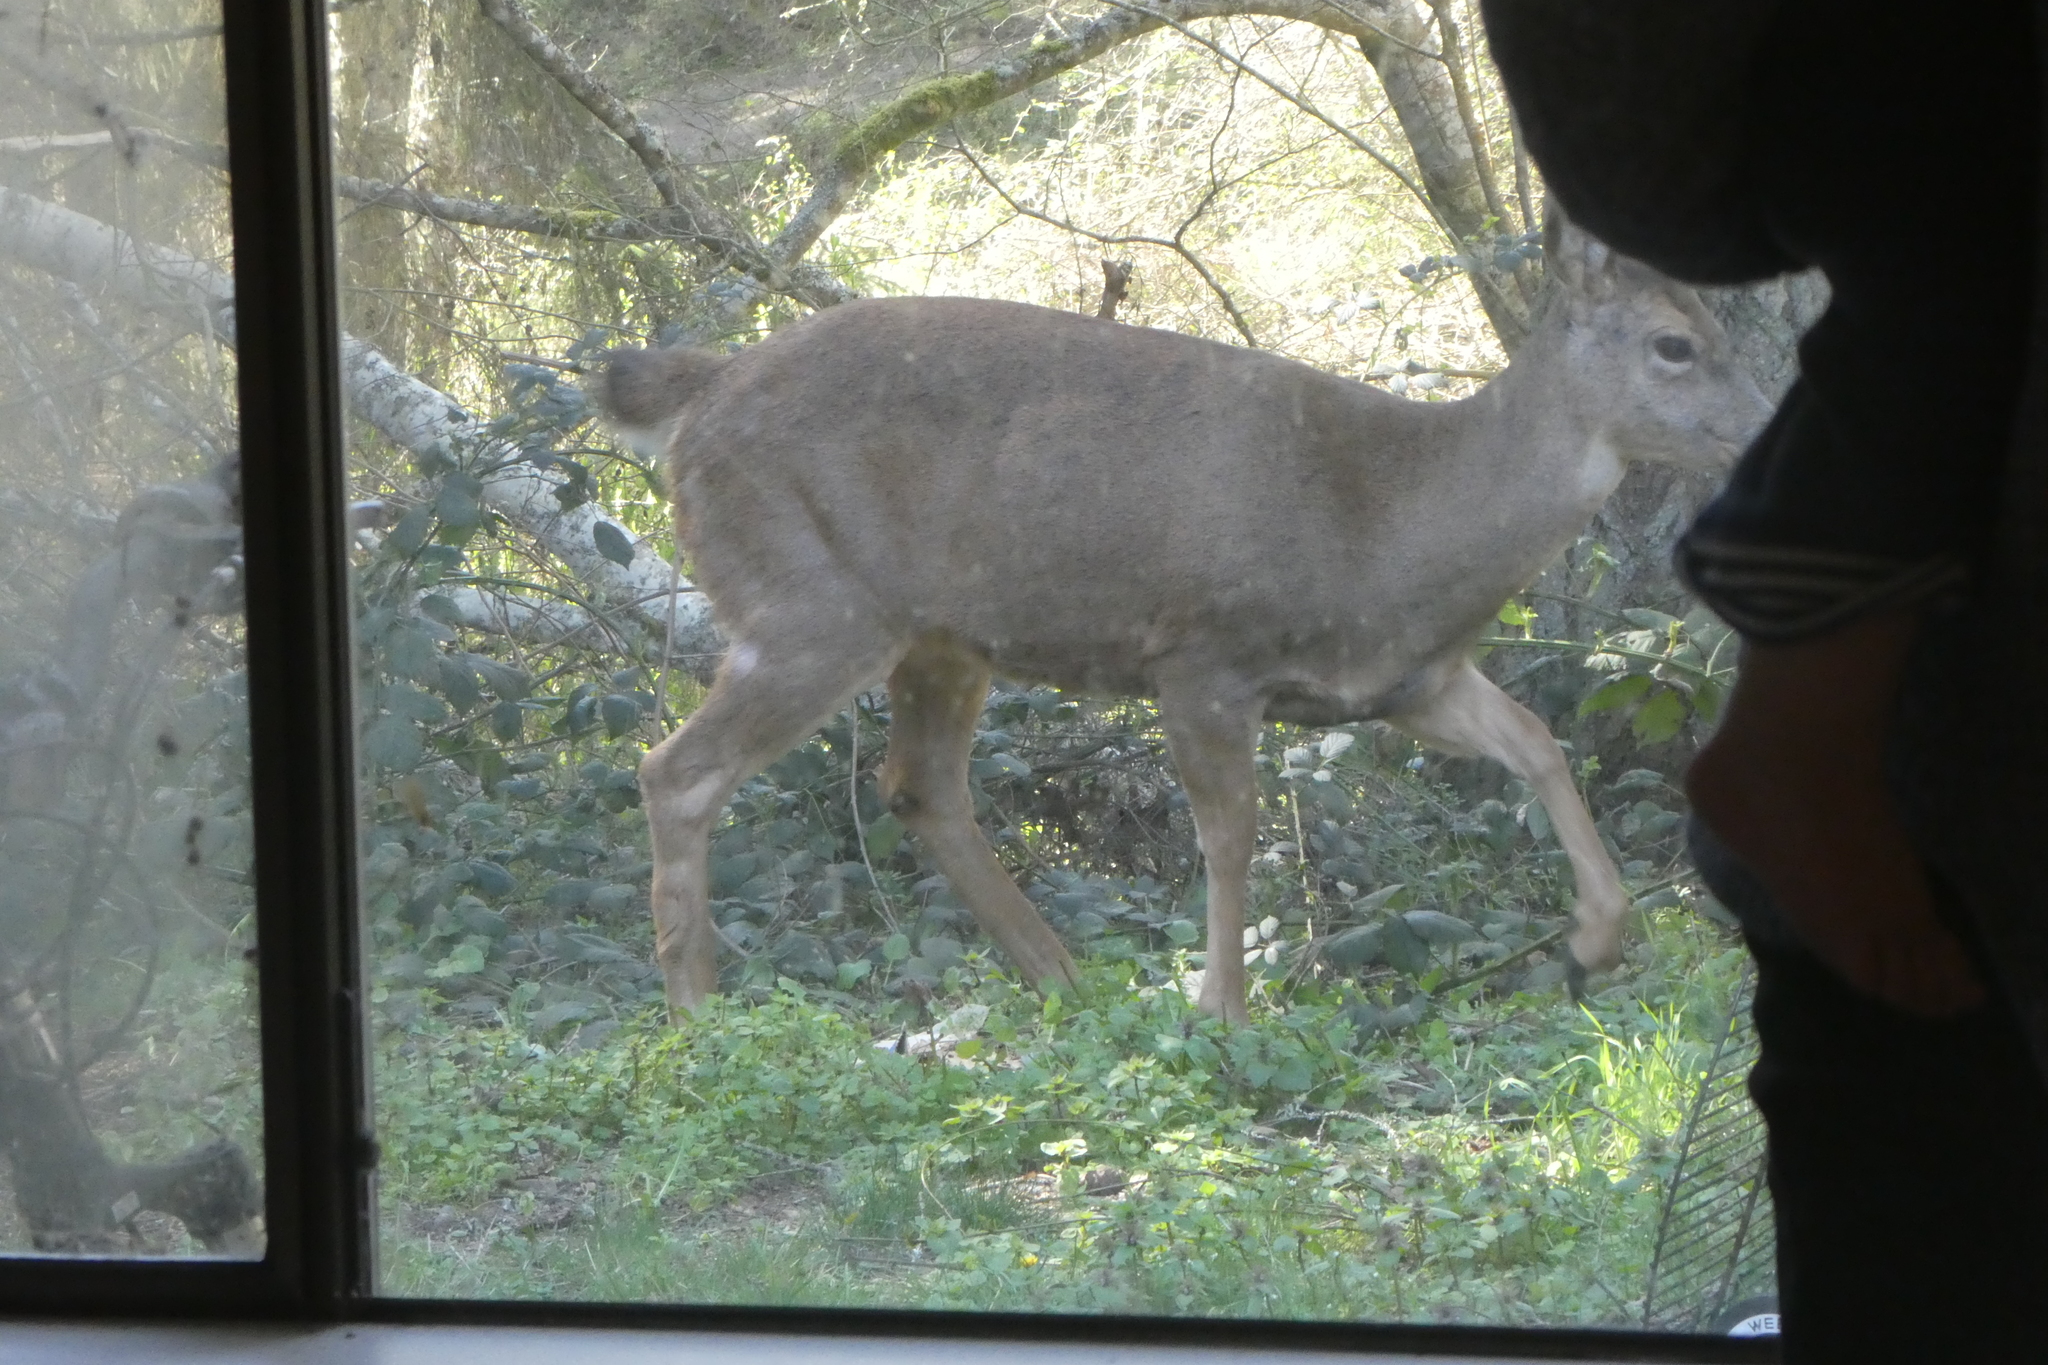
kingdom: Animalia
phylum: Chordata
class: Mammalia
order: Artiodactyla
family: Cervidae
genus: Odocoileus
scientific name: Odocoileus hemionus
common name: Mule deer
